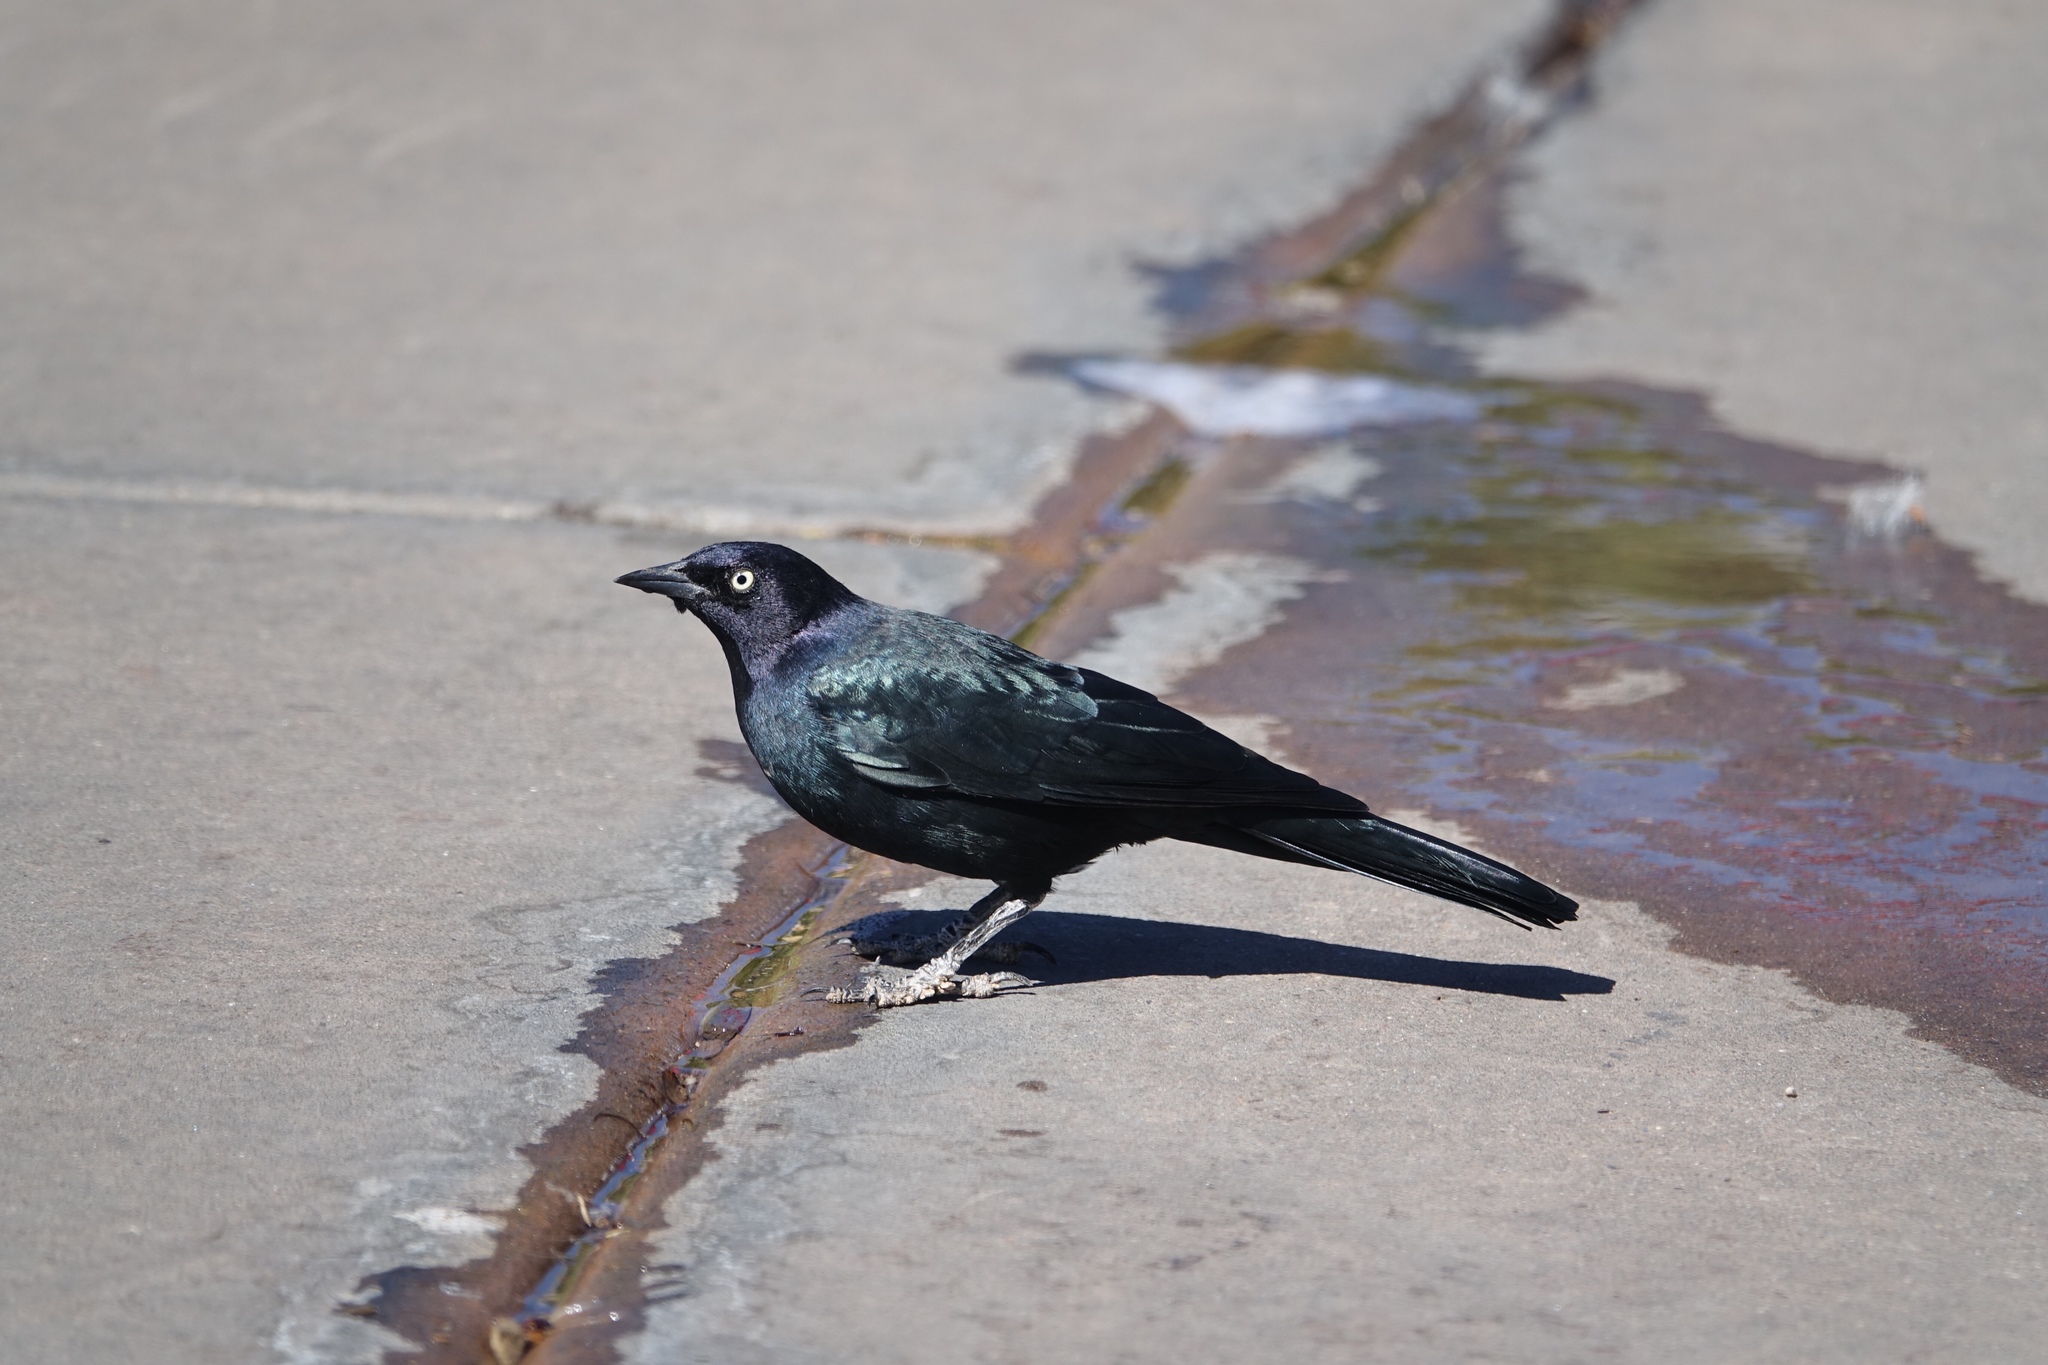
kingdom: Animalia
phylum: Chordata
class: Aves
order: Passeriformes
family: Icteridae
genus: Euphagus
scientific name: Euphagus cyanocephalus
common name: Brewer's blackbird
